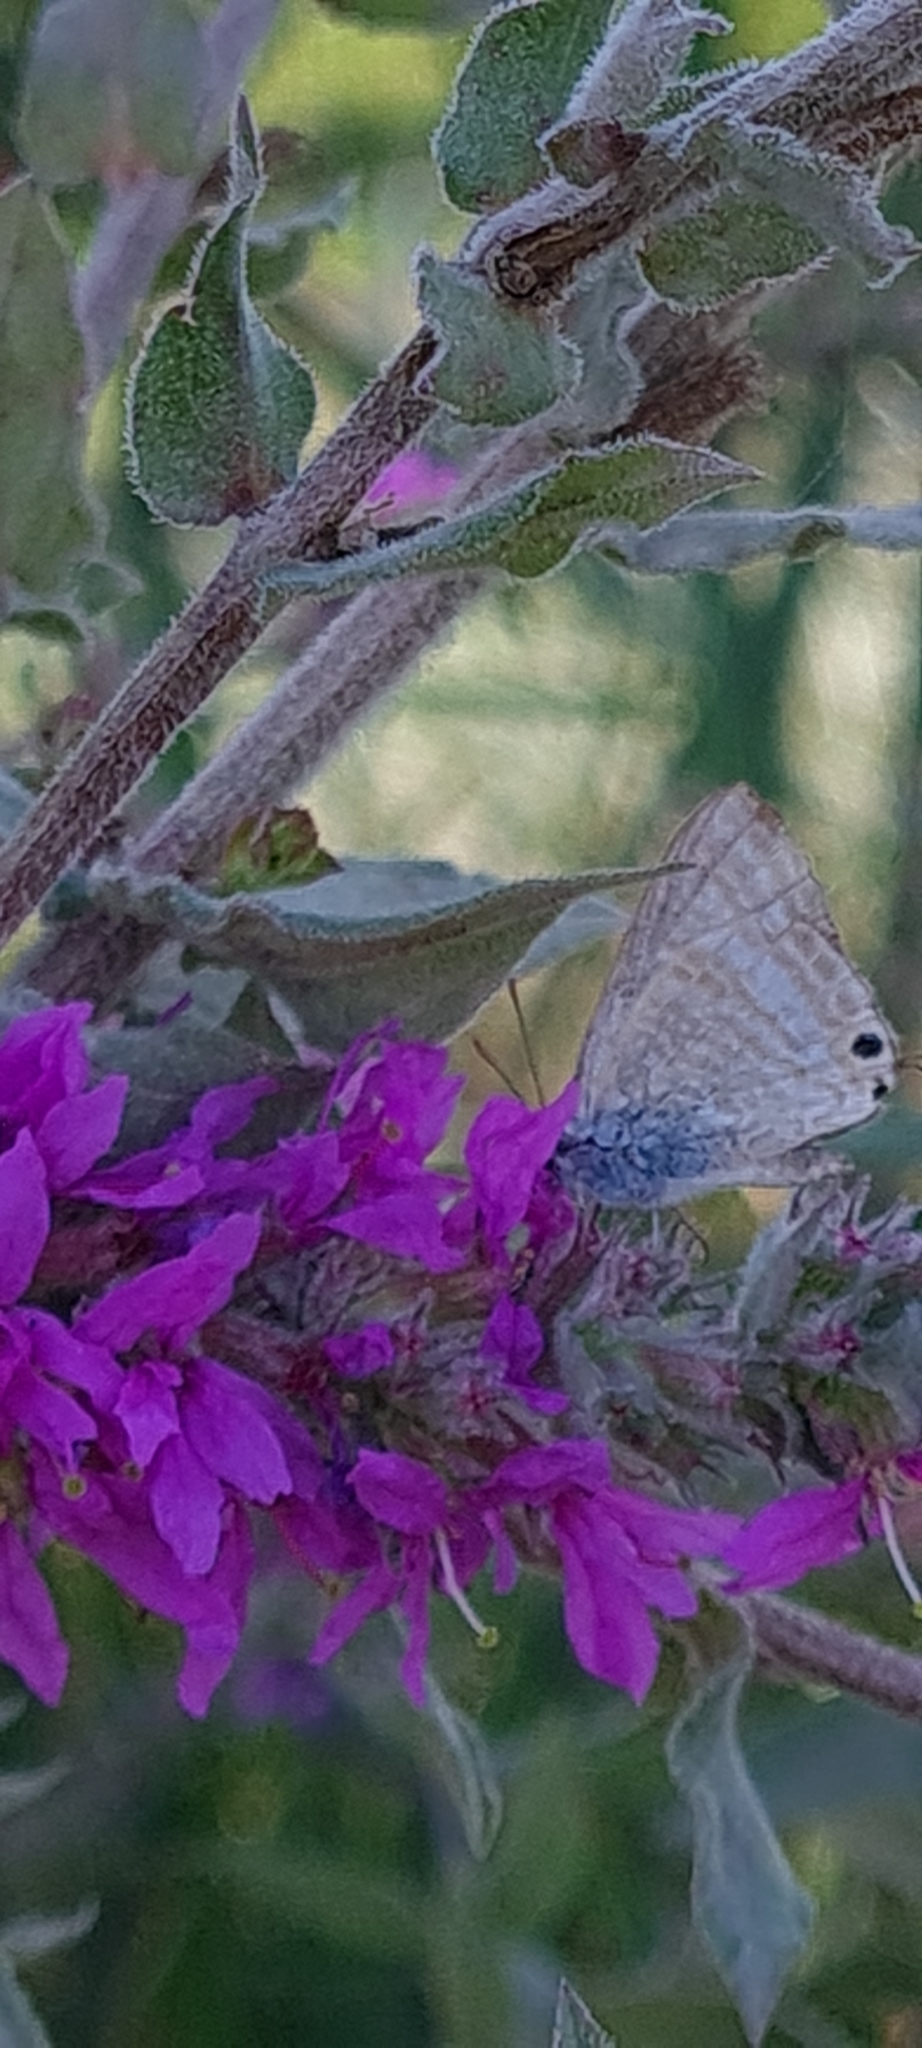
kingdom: Animalia
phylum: Arthropoda
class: Insecta
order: Lepidoptera
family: Lycaenidae
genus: Lampides
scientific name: Lampides boeticus
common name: Long-tailed blue
